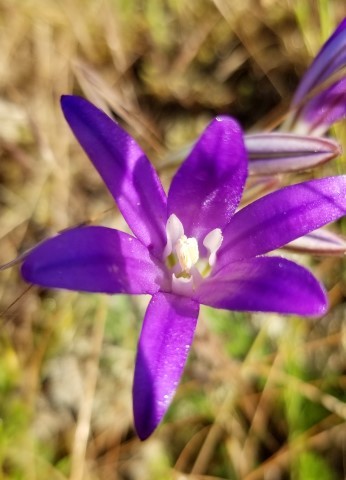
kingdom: Plantae
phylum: Tracheophyta
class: Liliopsida
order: Asparagales
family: Asparagaceae
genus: Brodiaea
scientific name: Brodiaea elegans
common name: Elegant cluster-lily
